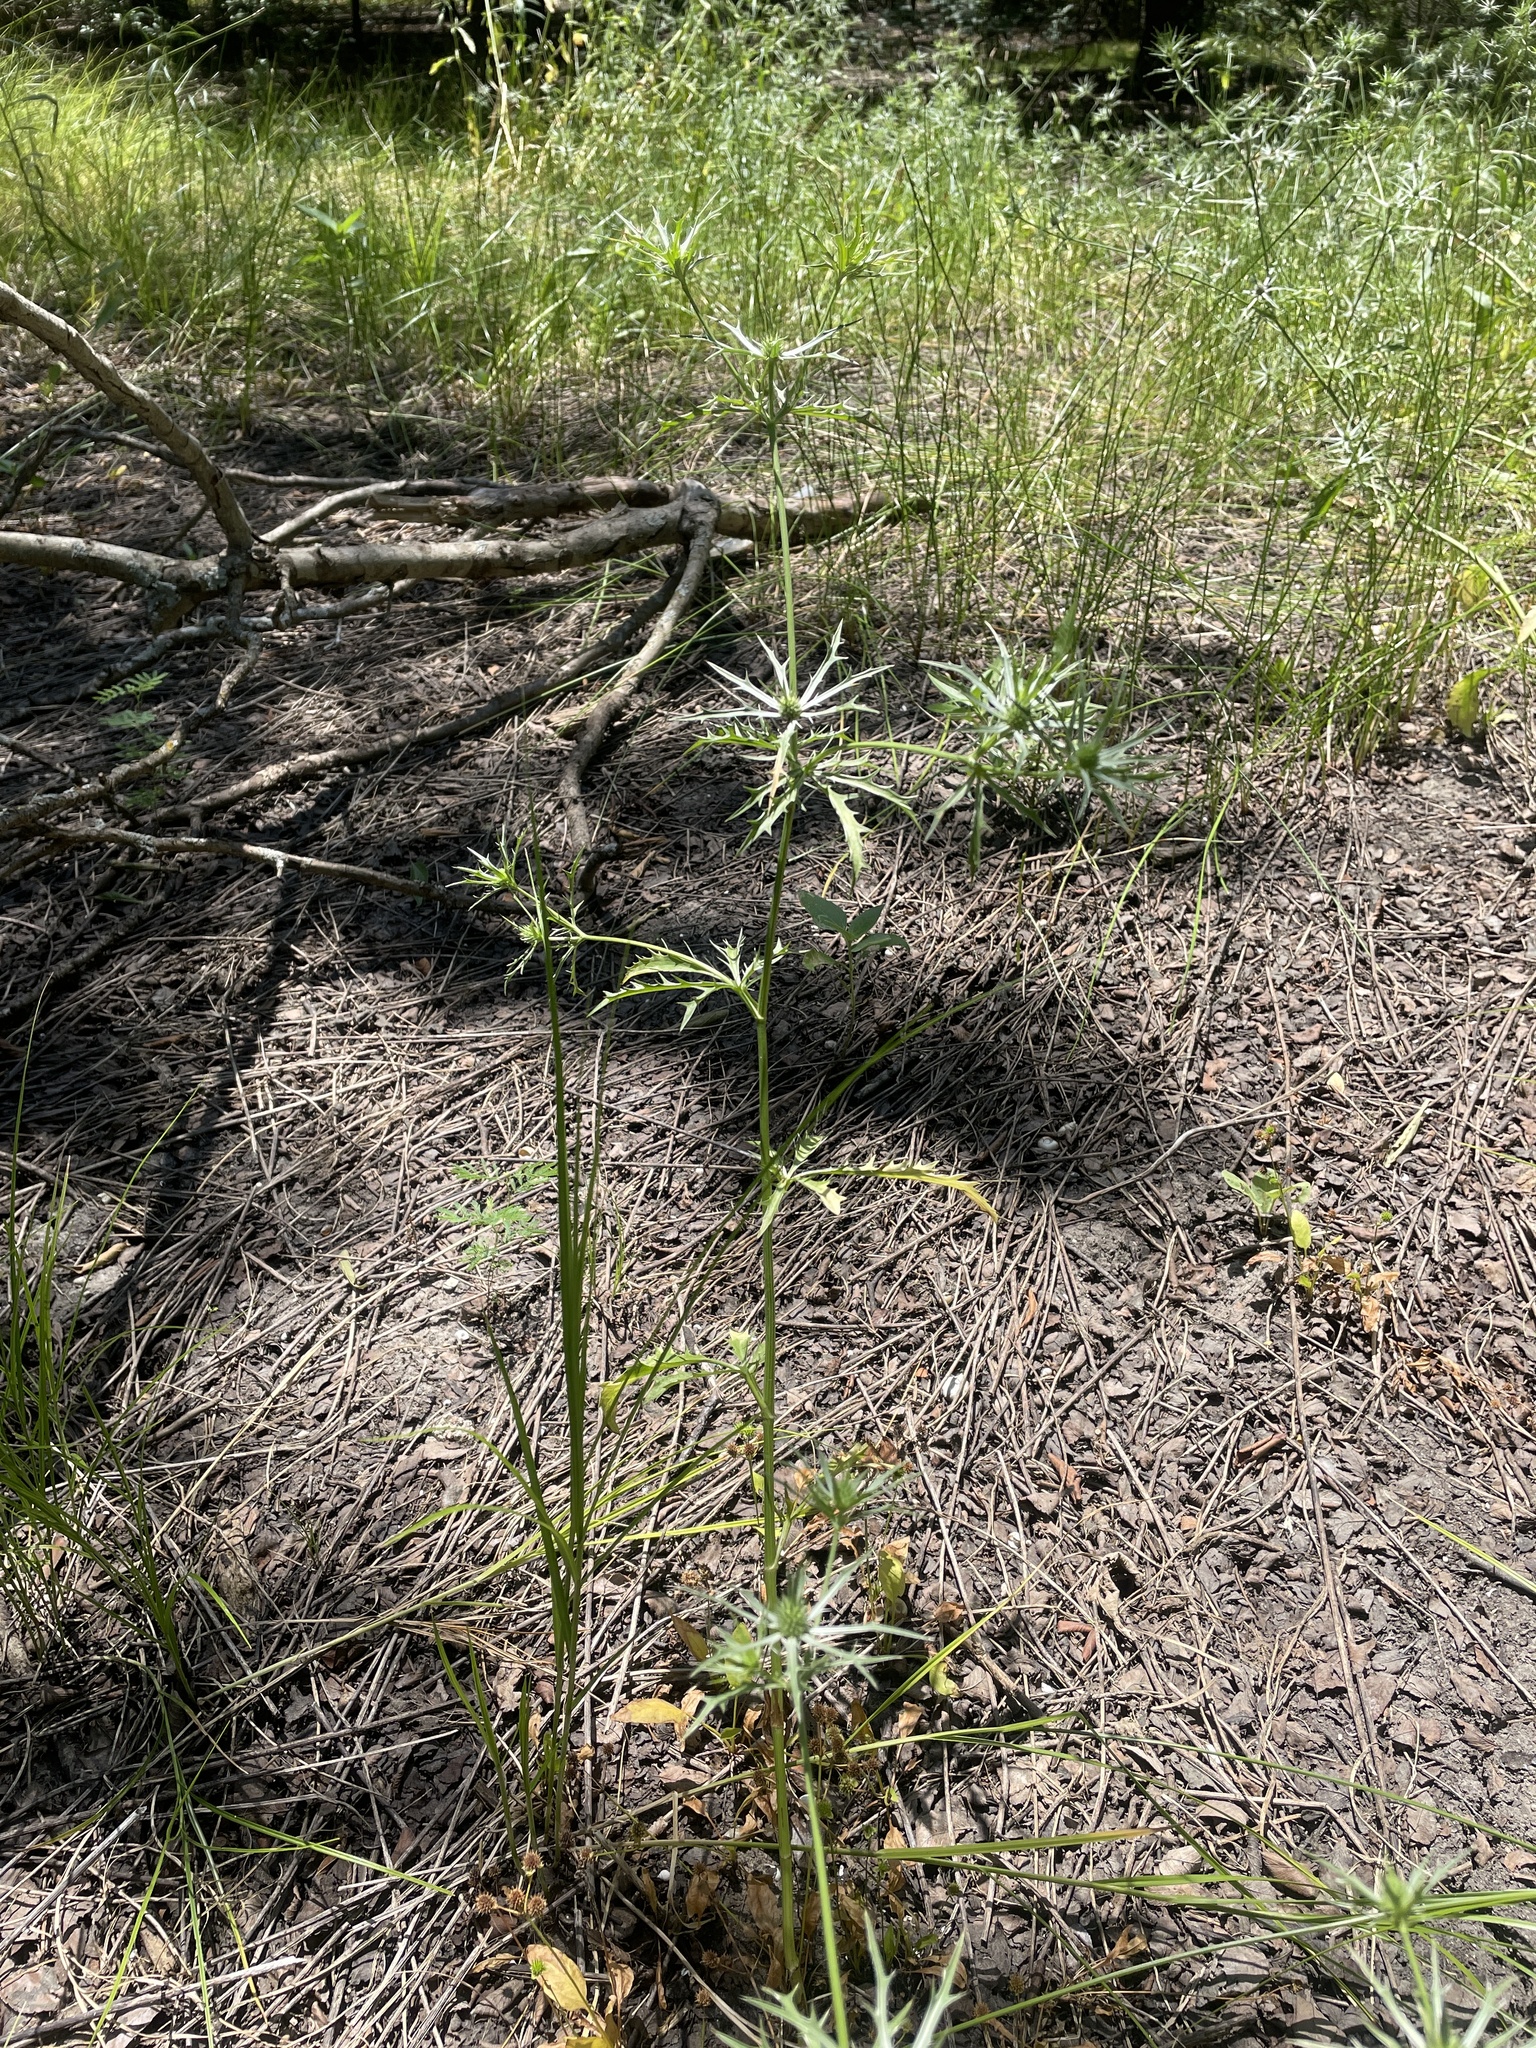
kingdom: Plantae
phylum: Tracheophyta
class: Magnoliopsida
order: Apiales
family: Apiaceae
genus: Eryngium
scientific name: Eryngium hookeri
